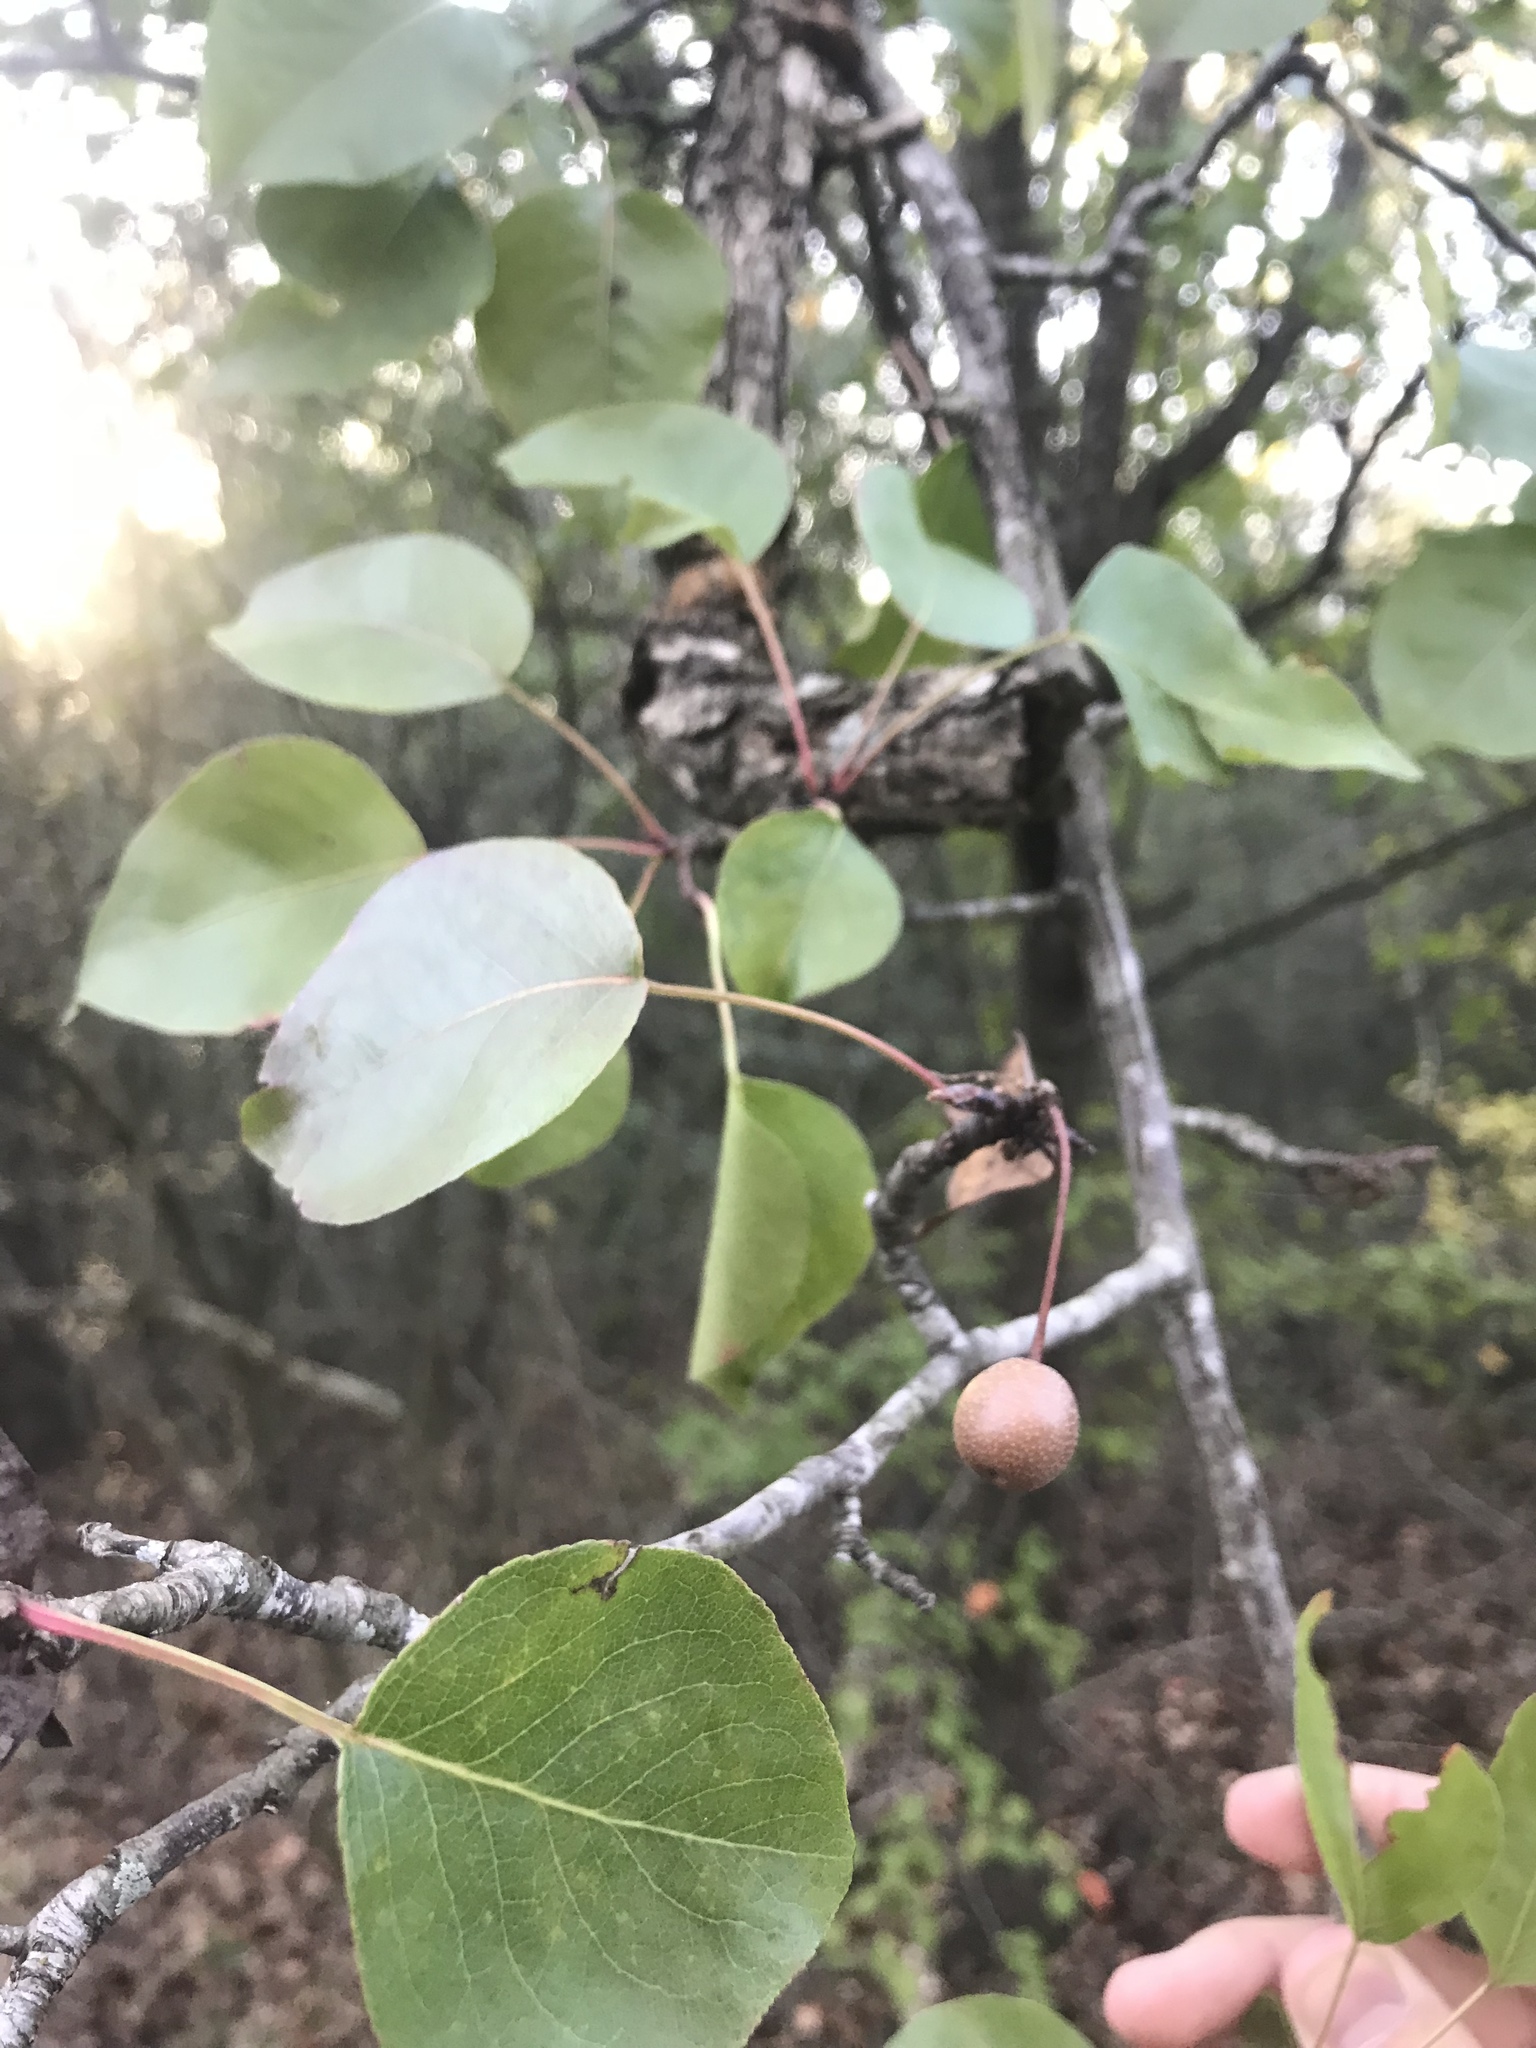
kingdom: Plantae
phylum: Tracheophyta
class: Magnoliopsida
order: Rosales
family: Rosaceae
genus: Pyrus
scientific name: Pyrus calleryana
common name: Callery pear
